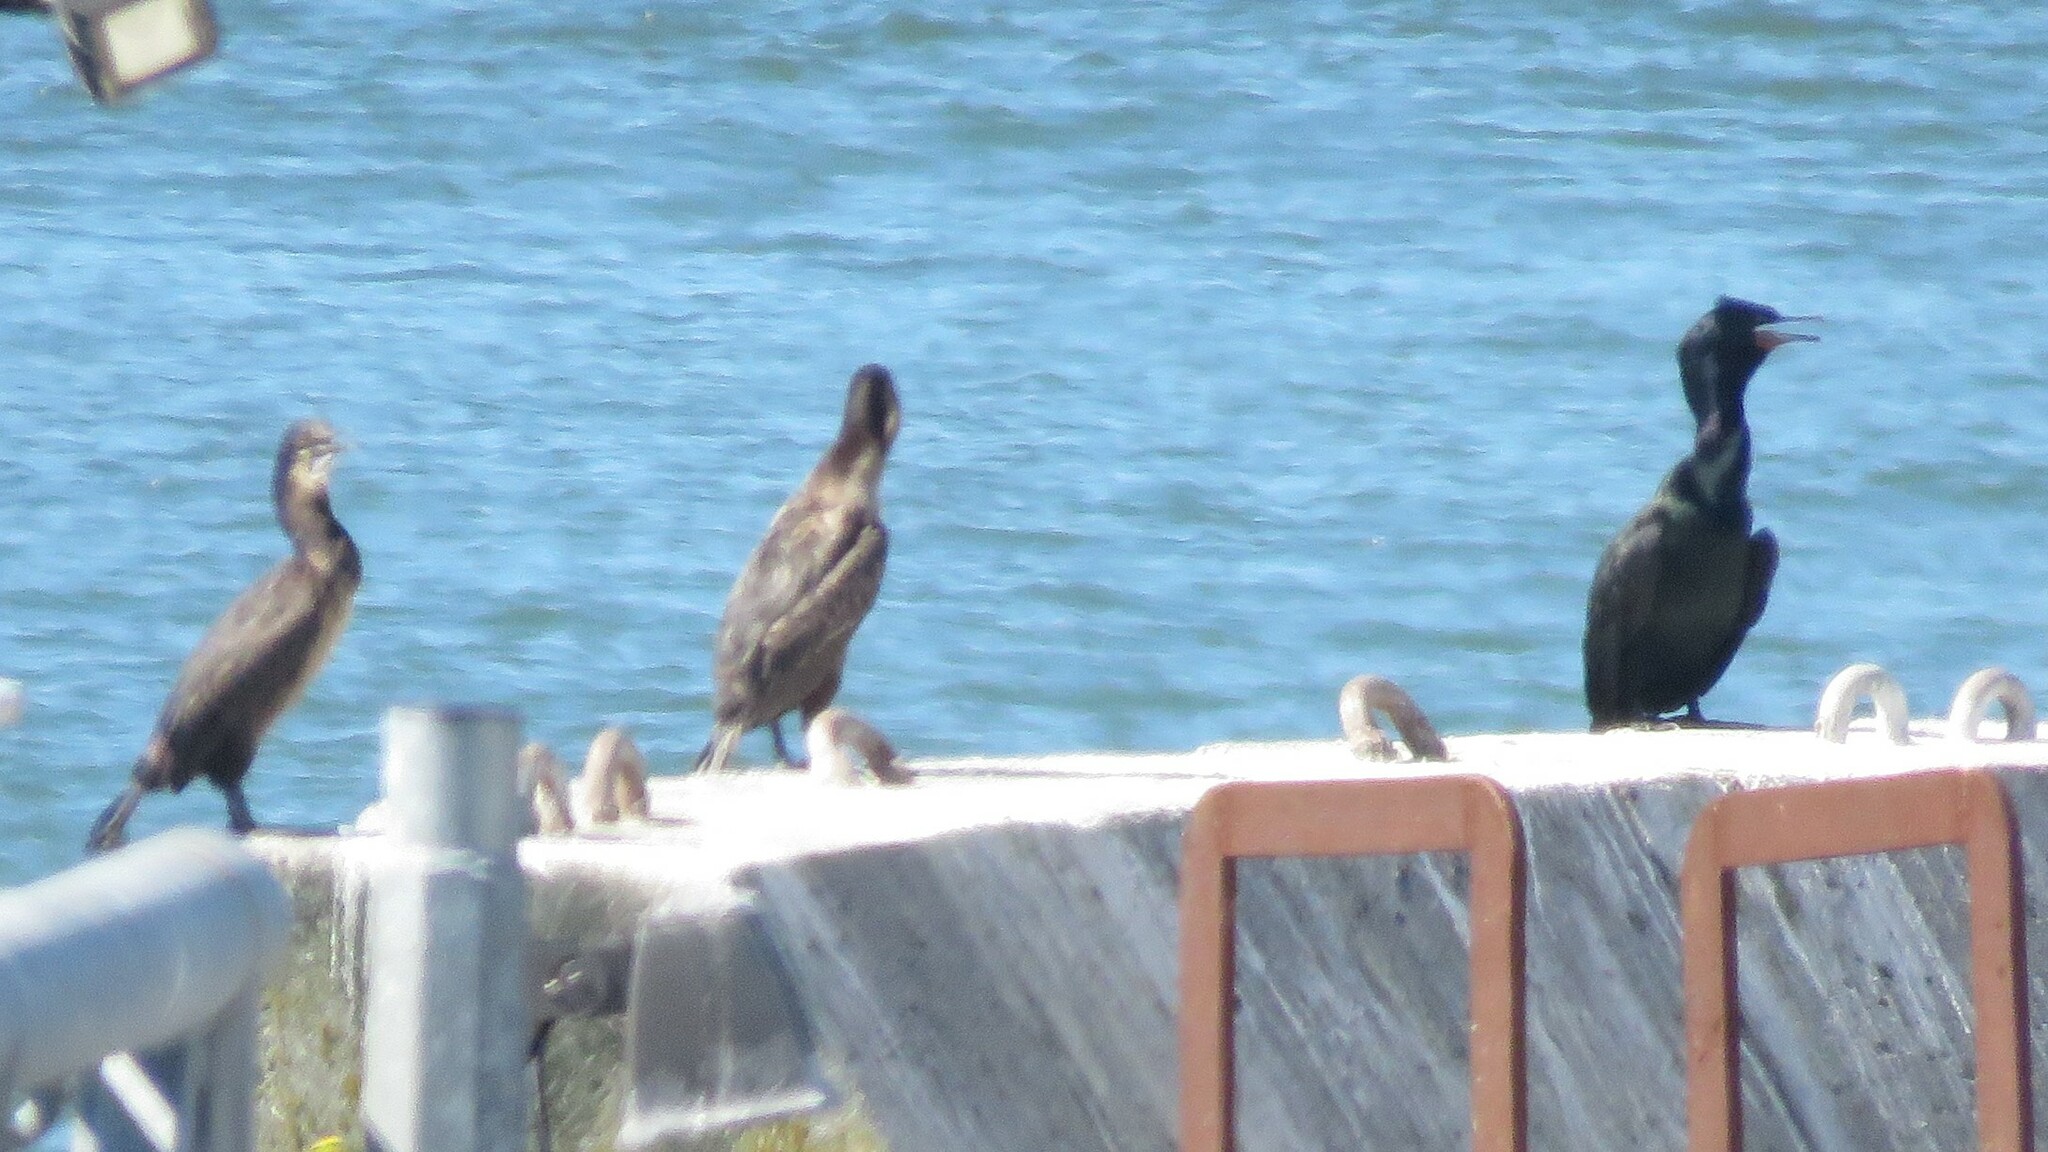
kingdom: Animalia
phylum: Chordata
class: Aves
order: Suliformes
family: Phalacrocoracidae
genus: Phalacrocorax
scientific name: Phalacrocorax auritus
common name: Double-crested cormorant
